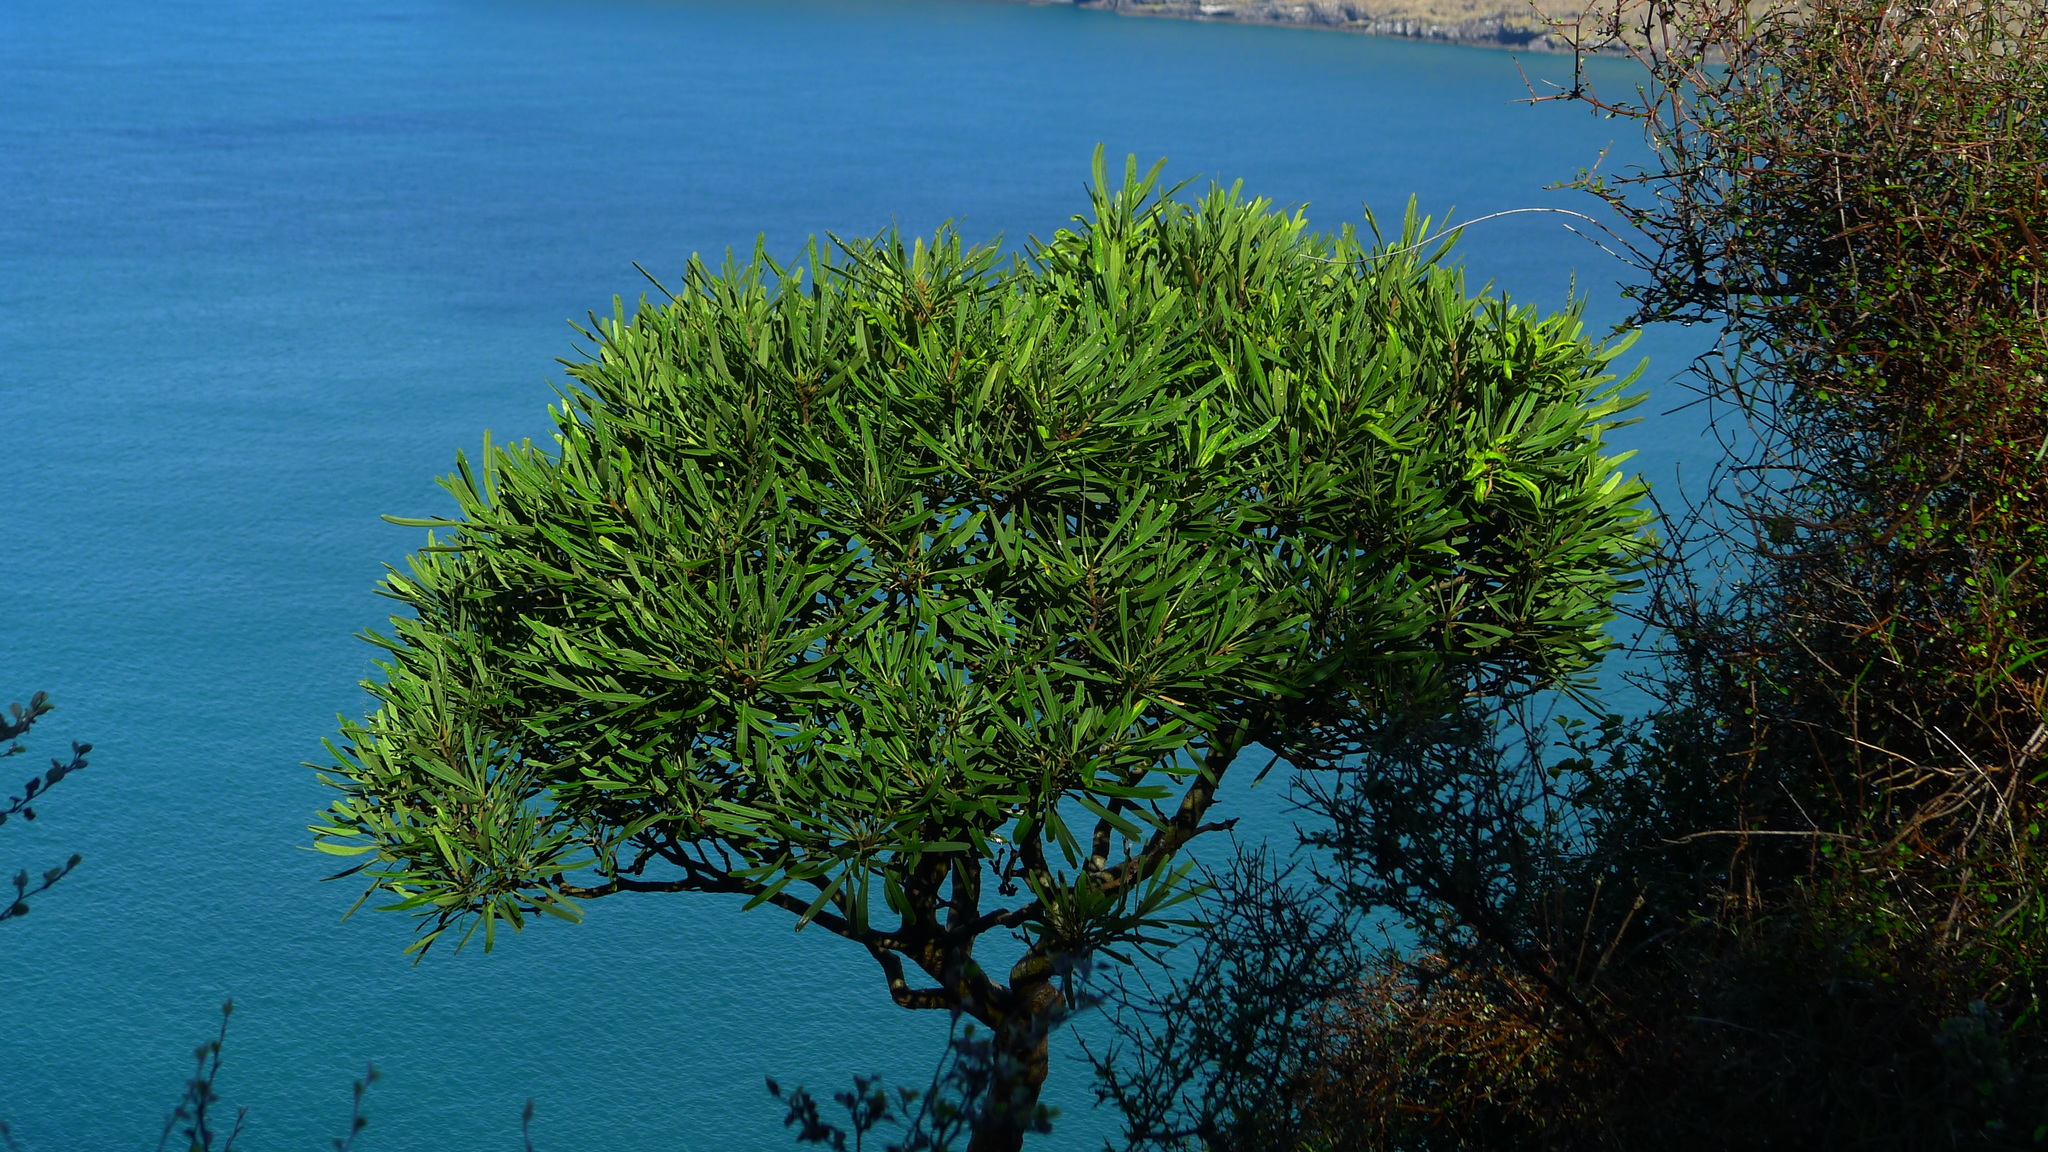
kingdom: Plantae
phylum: Tracheophyta
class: Magnoliopsida
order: Apiales
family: Araliaceae
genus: Pseudopanax
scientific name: Pseudopanax ferox
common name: Fierce lancewood
